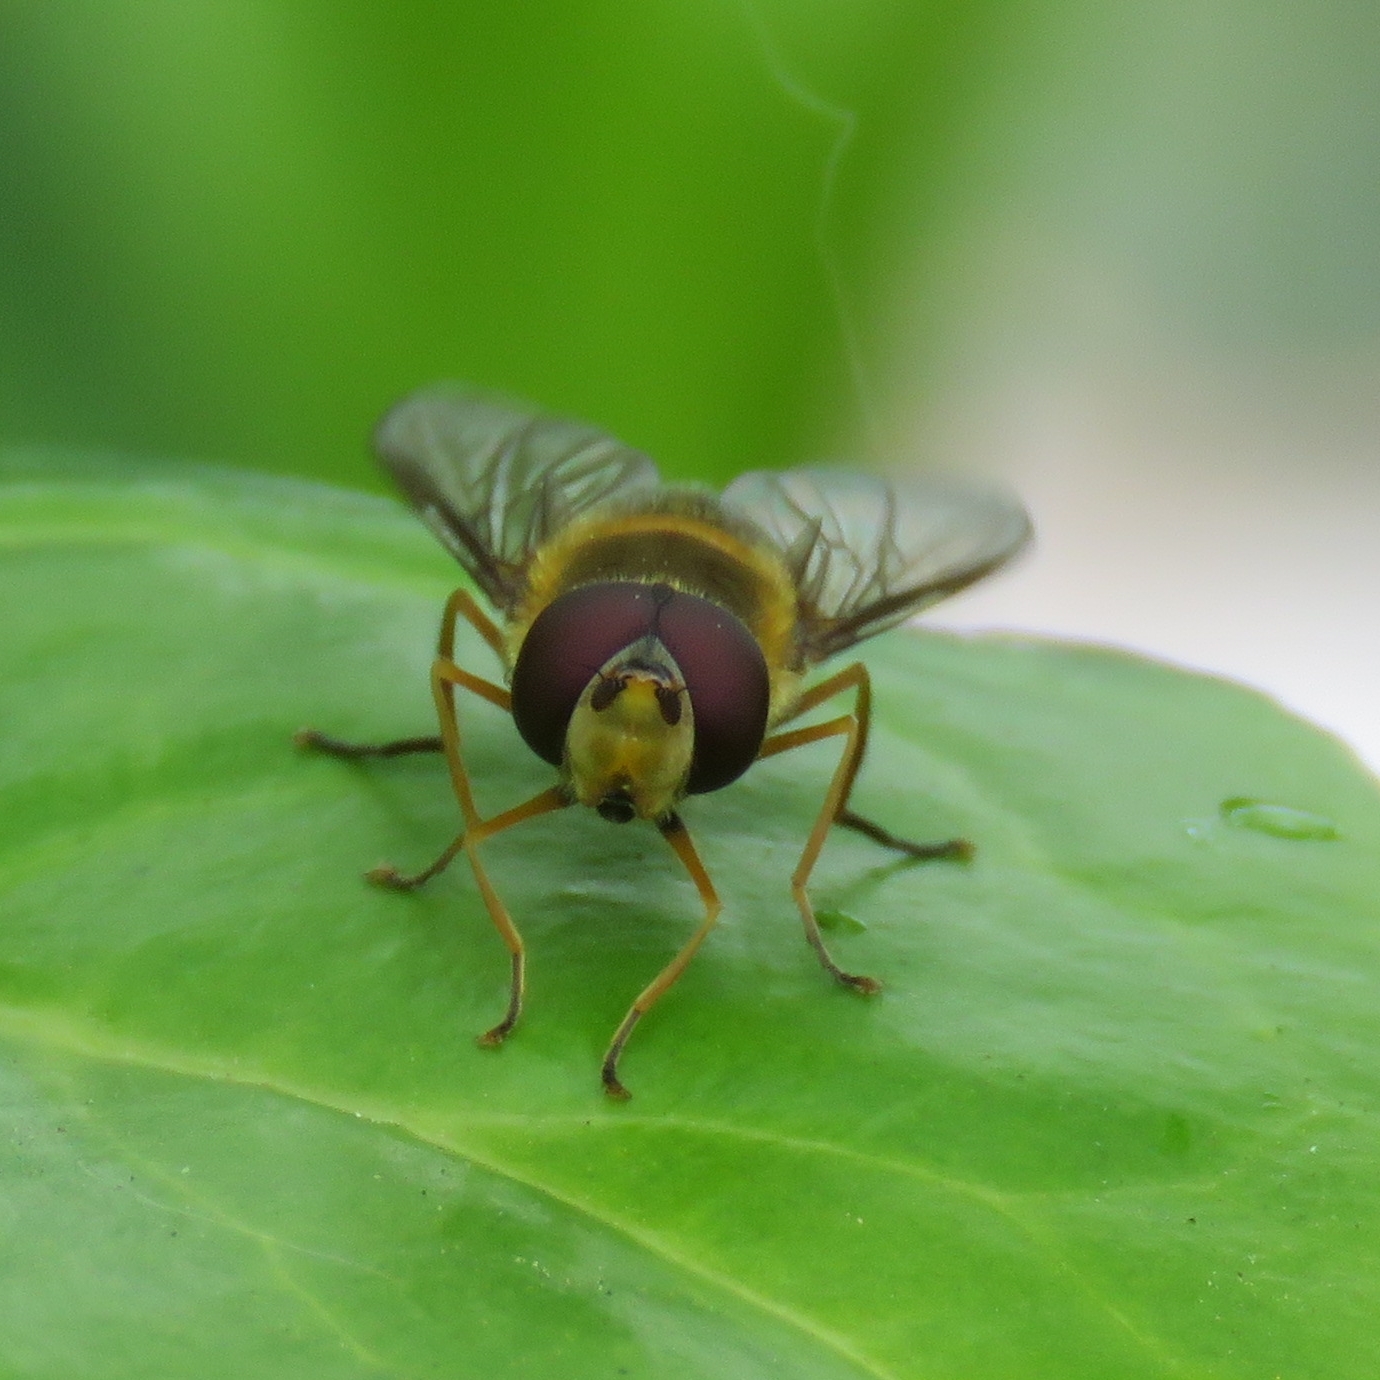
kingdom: Animalia
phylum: Arthropoda
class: Insecta
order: Diptera
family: Syrphidae
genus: Syrphus
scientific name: Syrphus
